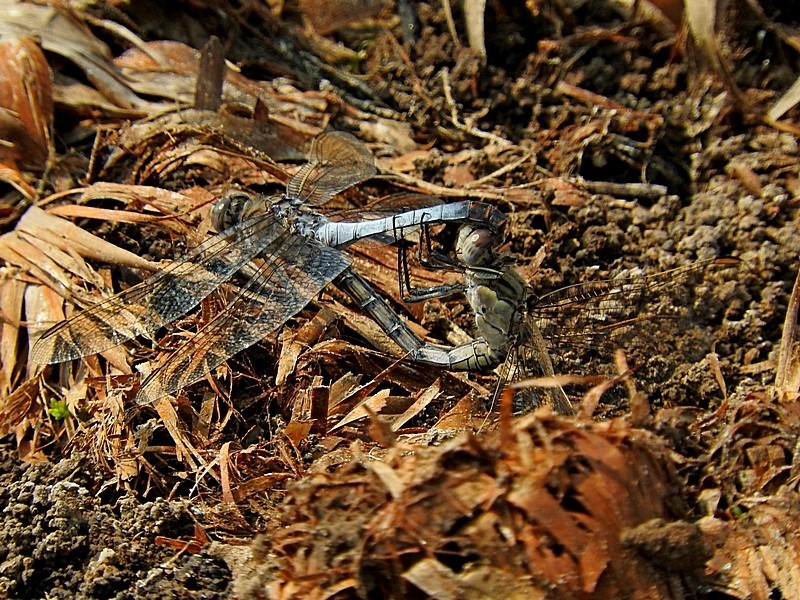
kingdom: Animalia
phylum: Arthropoda
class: Insecta
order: Odonata
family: Libellulidae
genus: Orthetrum
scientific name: Orthetrum caledonicum
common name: Blue skimmer
